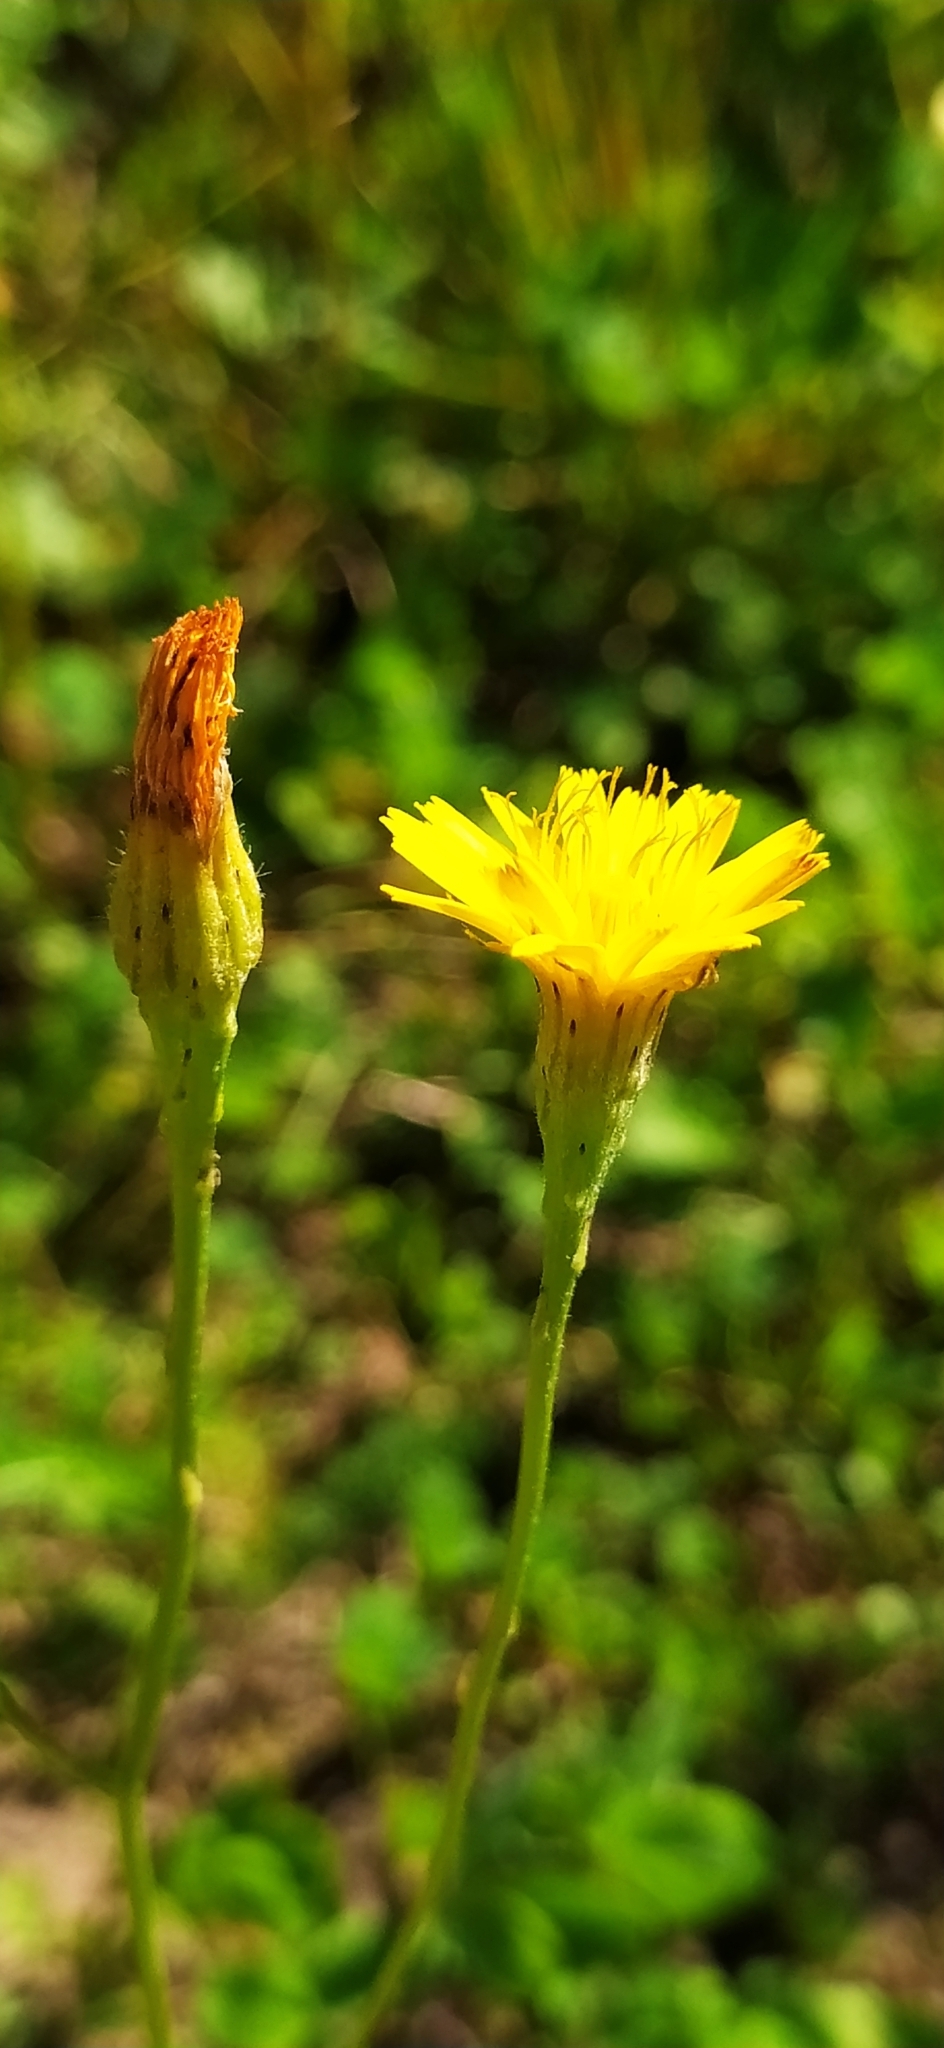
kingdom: Plantae
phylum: Tracheophyta
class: Magnoliopsida
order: Asterales
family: Asteraceae
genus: Scorzoneroides
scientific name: Scorzoneroides autumnalis
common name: Autumn hawkbit
